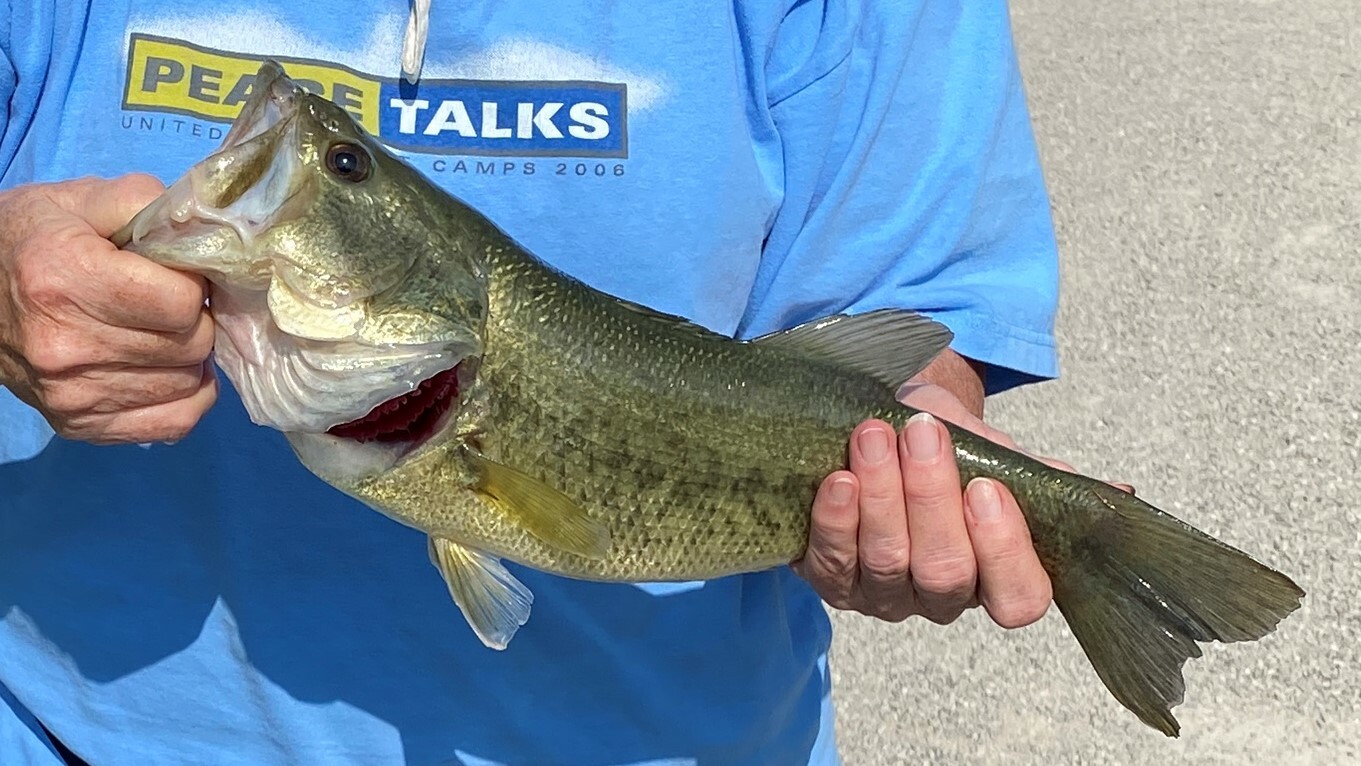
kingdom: Animalia
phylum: Chordata
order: Perciformes
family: Centrarchidae
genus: Micropterus
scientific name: Micropterus
